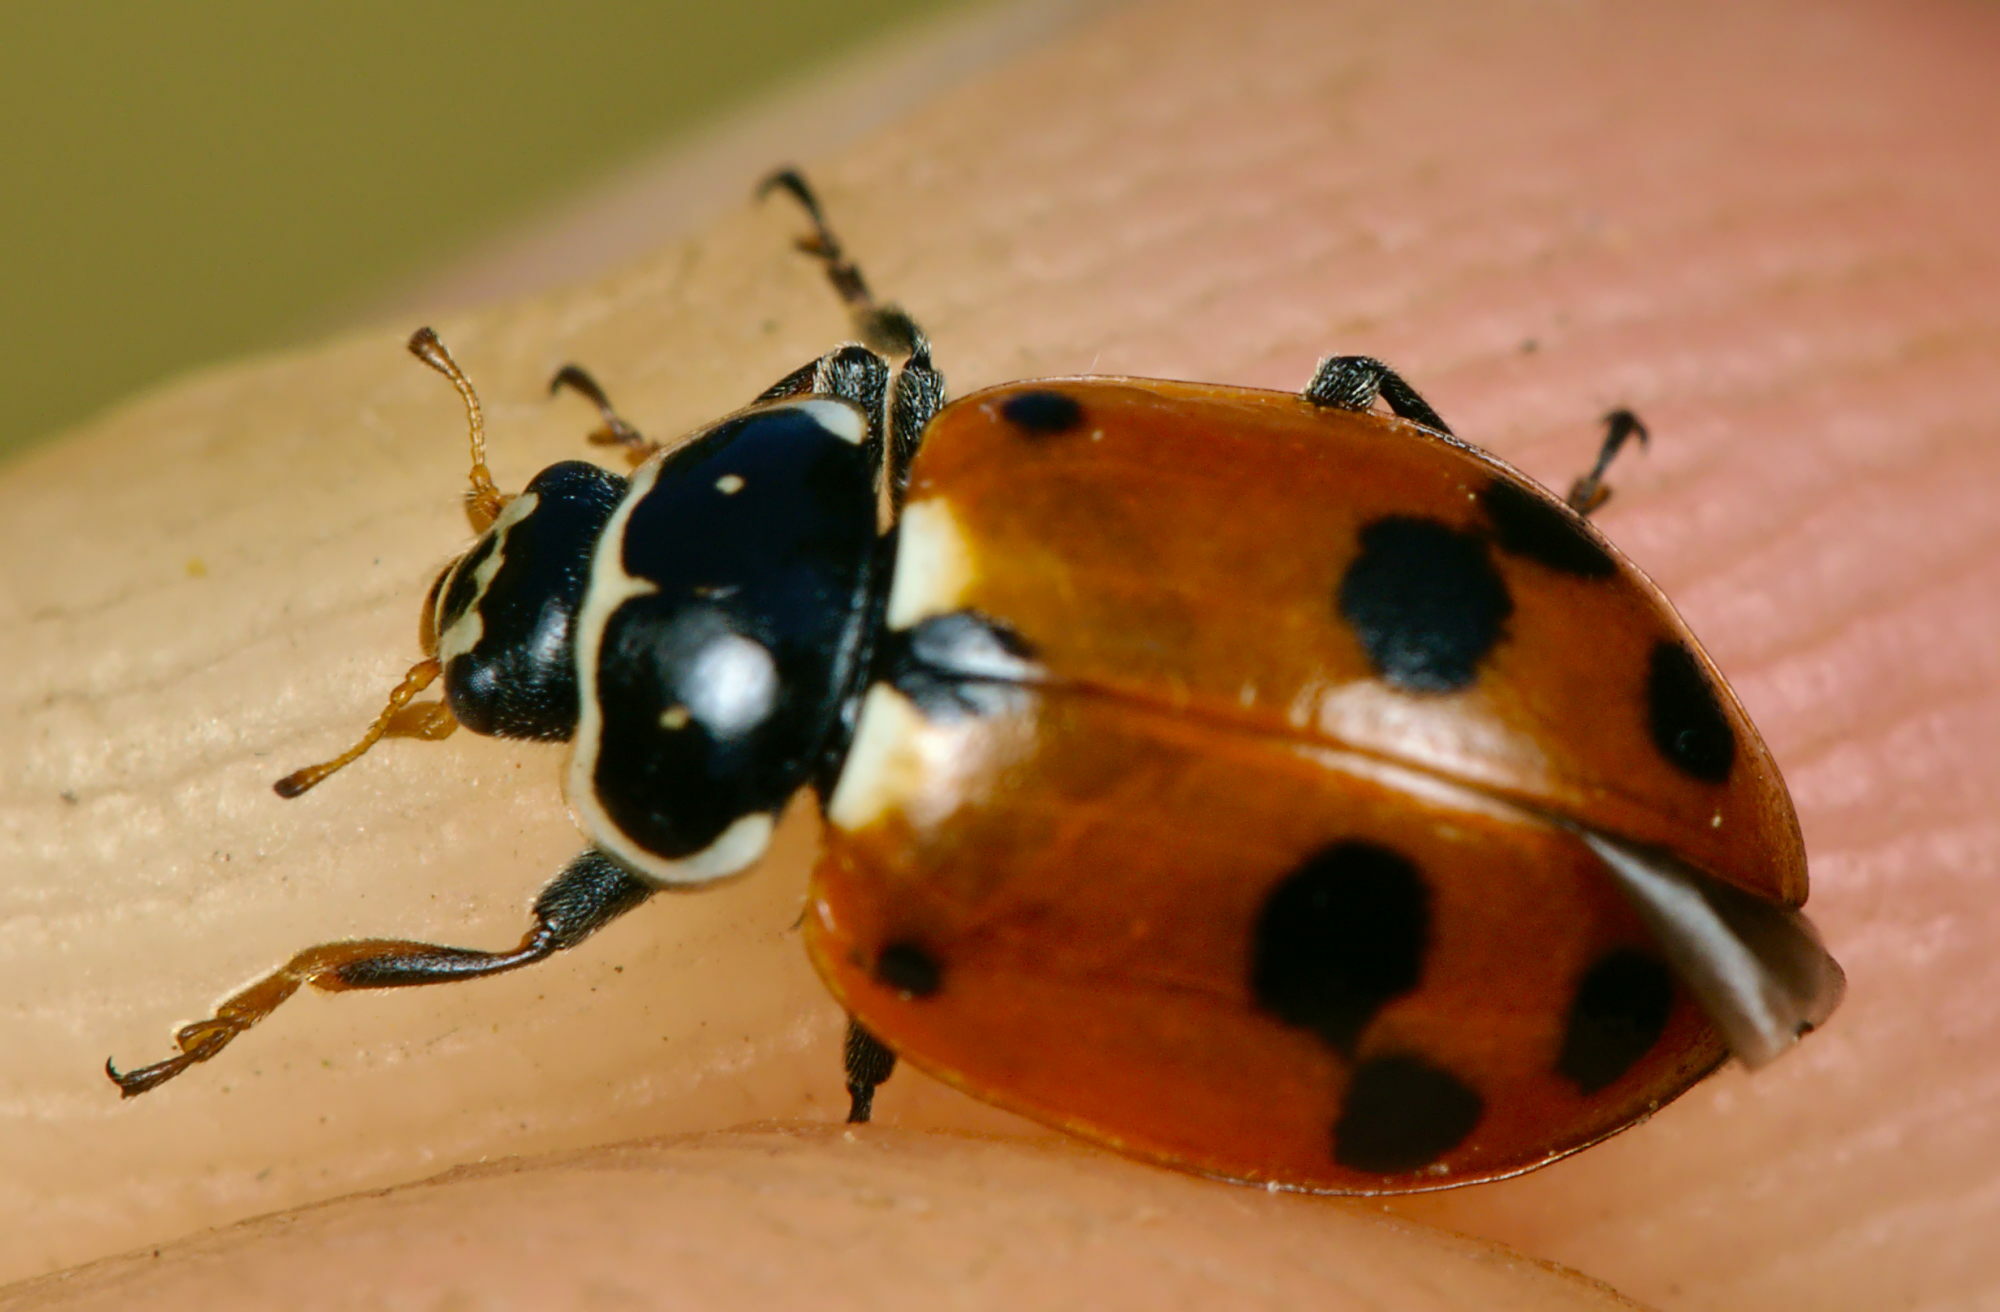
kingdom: Animalia
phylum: Arthropoda
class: Insecta
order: Coleoptera
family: Coccinellidae
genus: Hippodamia
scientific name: Hippodamia variegata
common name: Ladybird beetle
